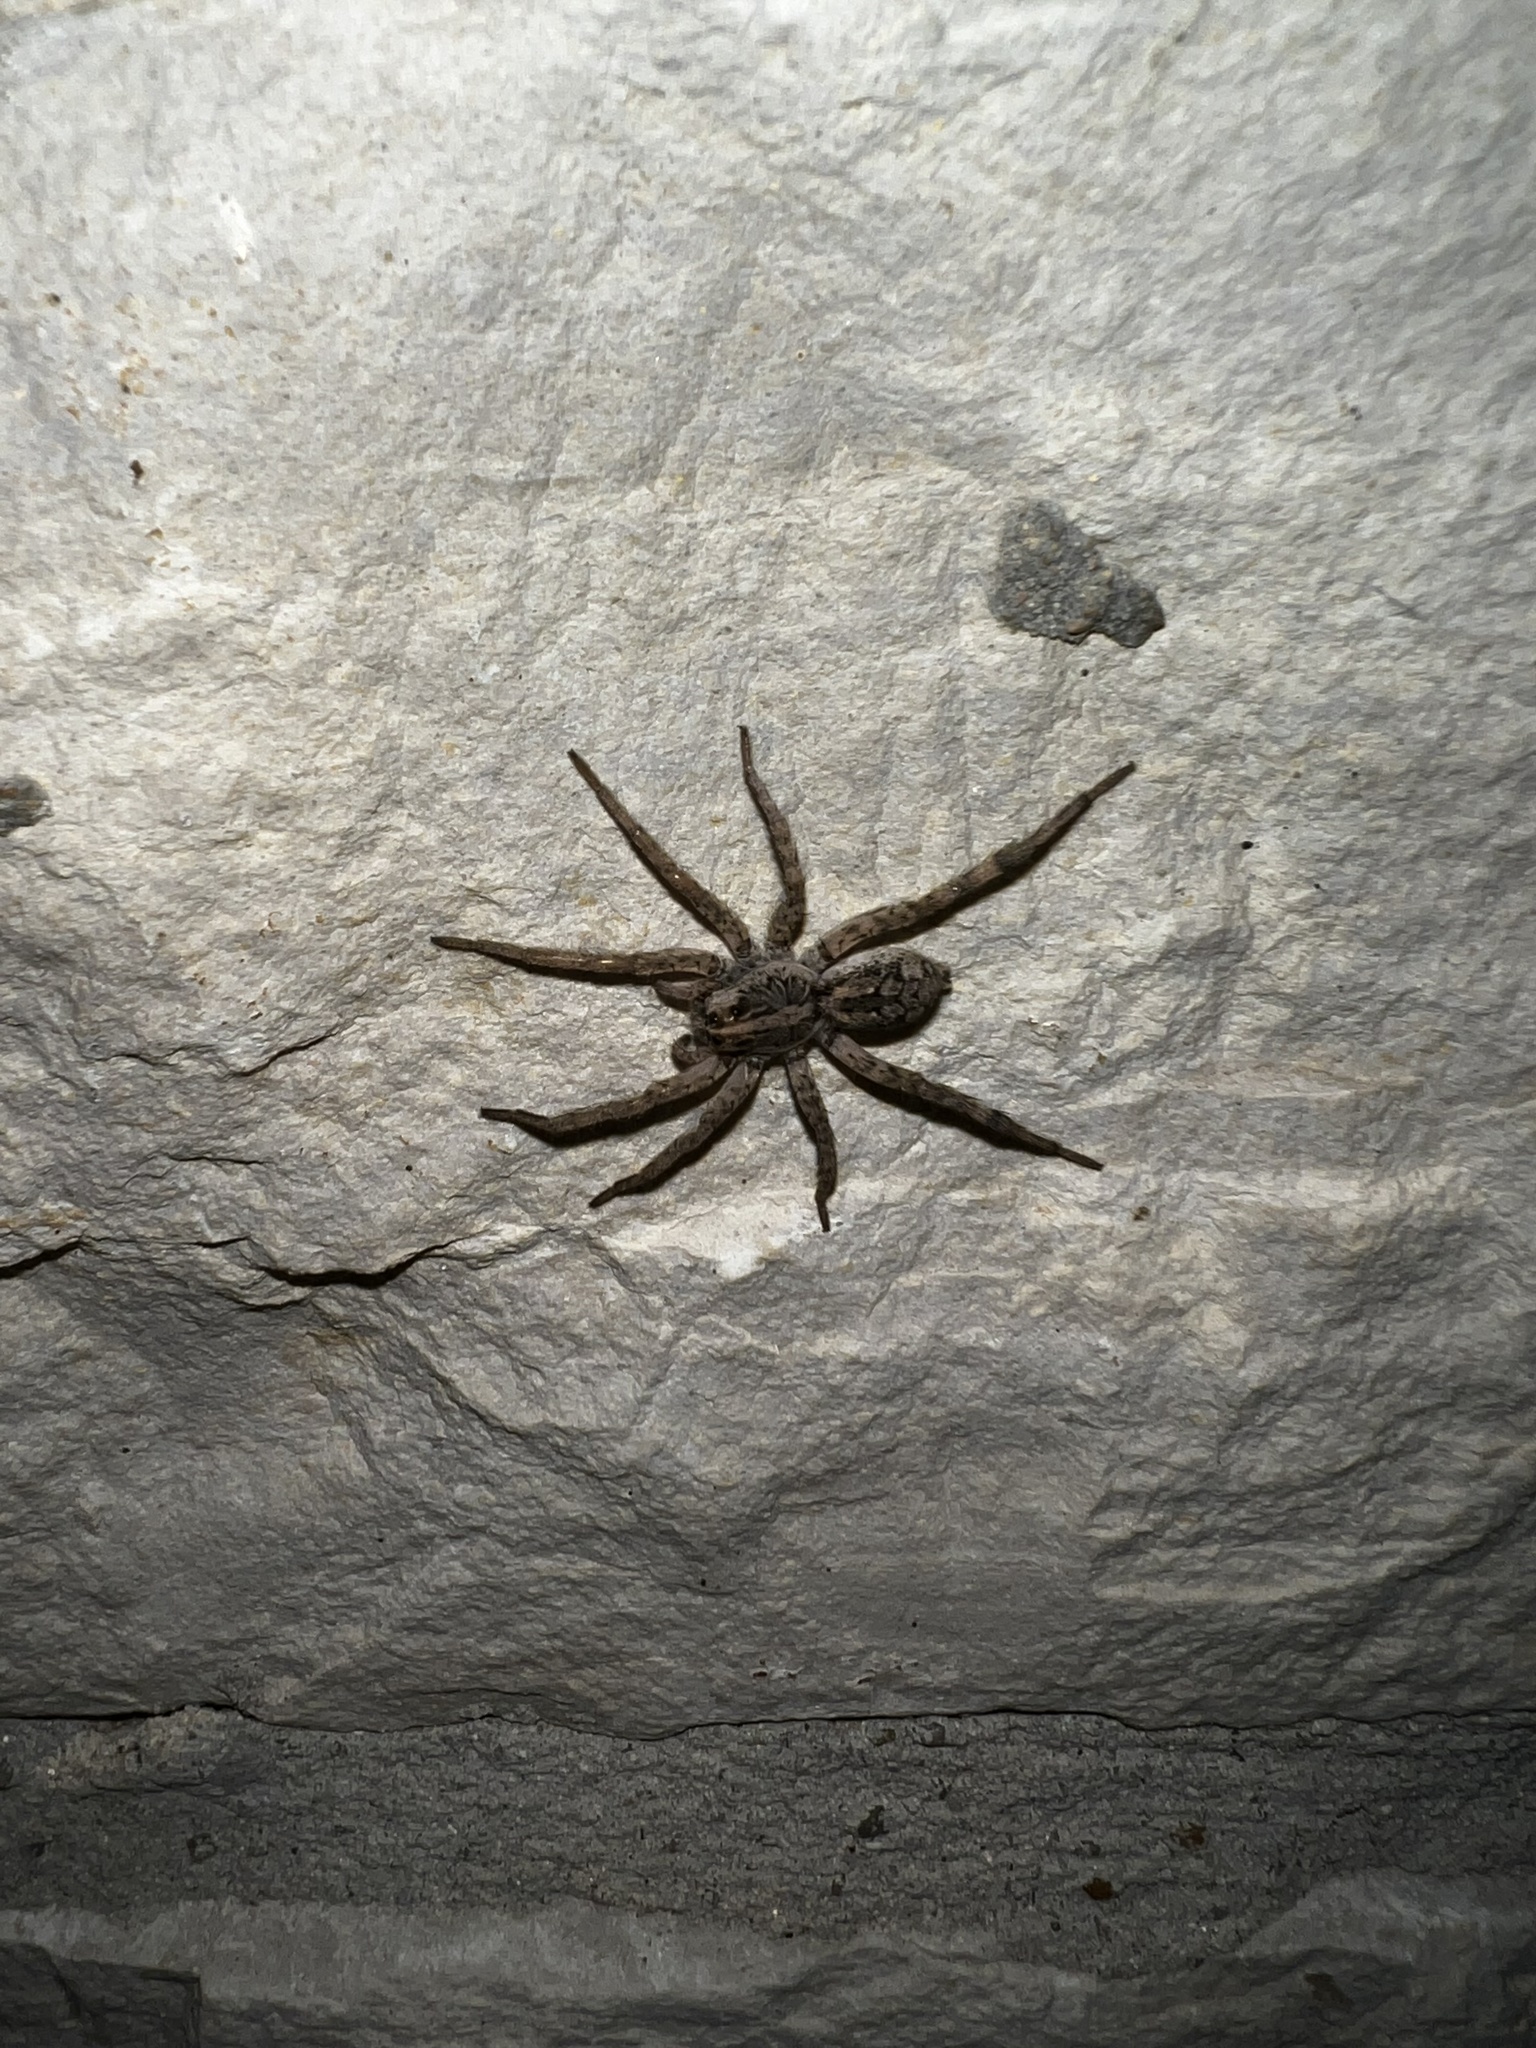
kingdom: Animalia
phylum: Arthropoda
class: Arachnida
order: Araneae
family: Lycosidae
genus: Hogna
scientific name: Hogna antelucana
